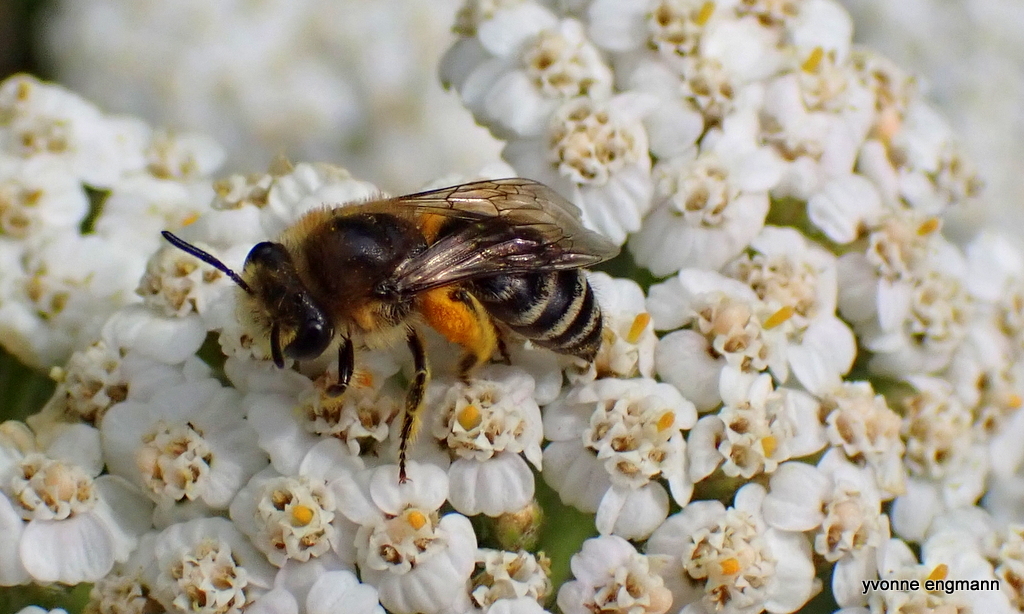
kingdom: Animalia
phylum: Arthropoda
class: Insecta
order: Hymenoptera
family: Colletidae
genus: Colletes
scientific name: Colletes
